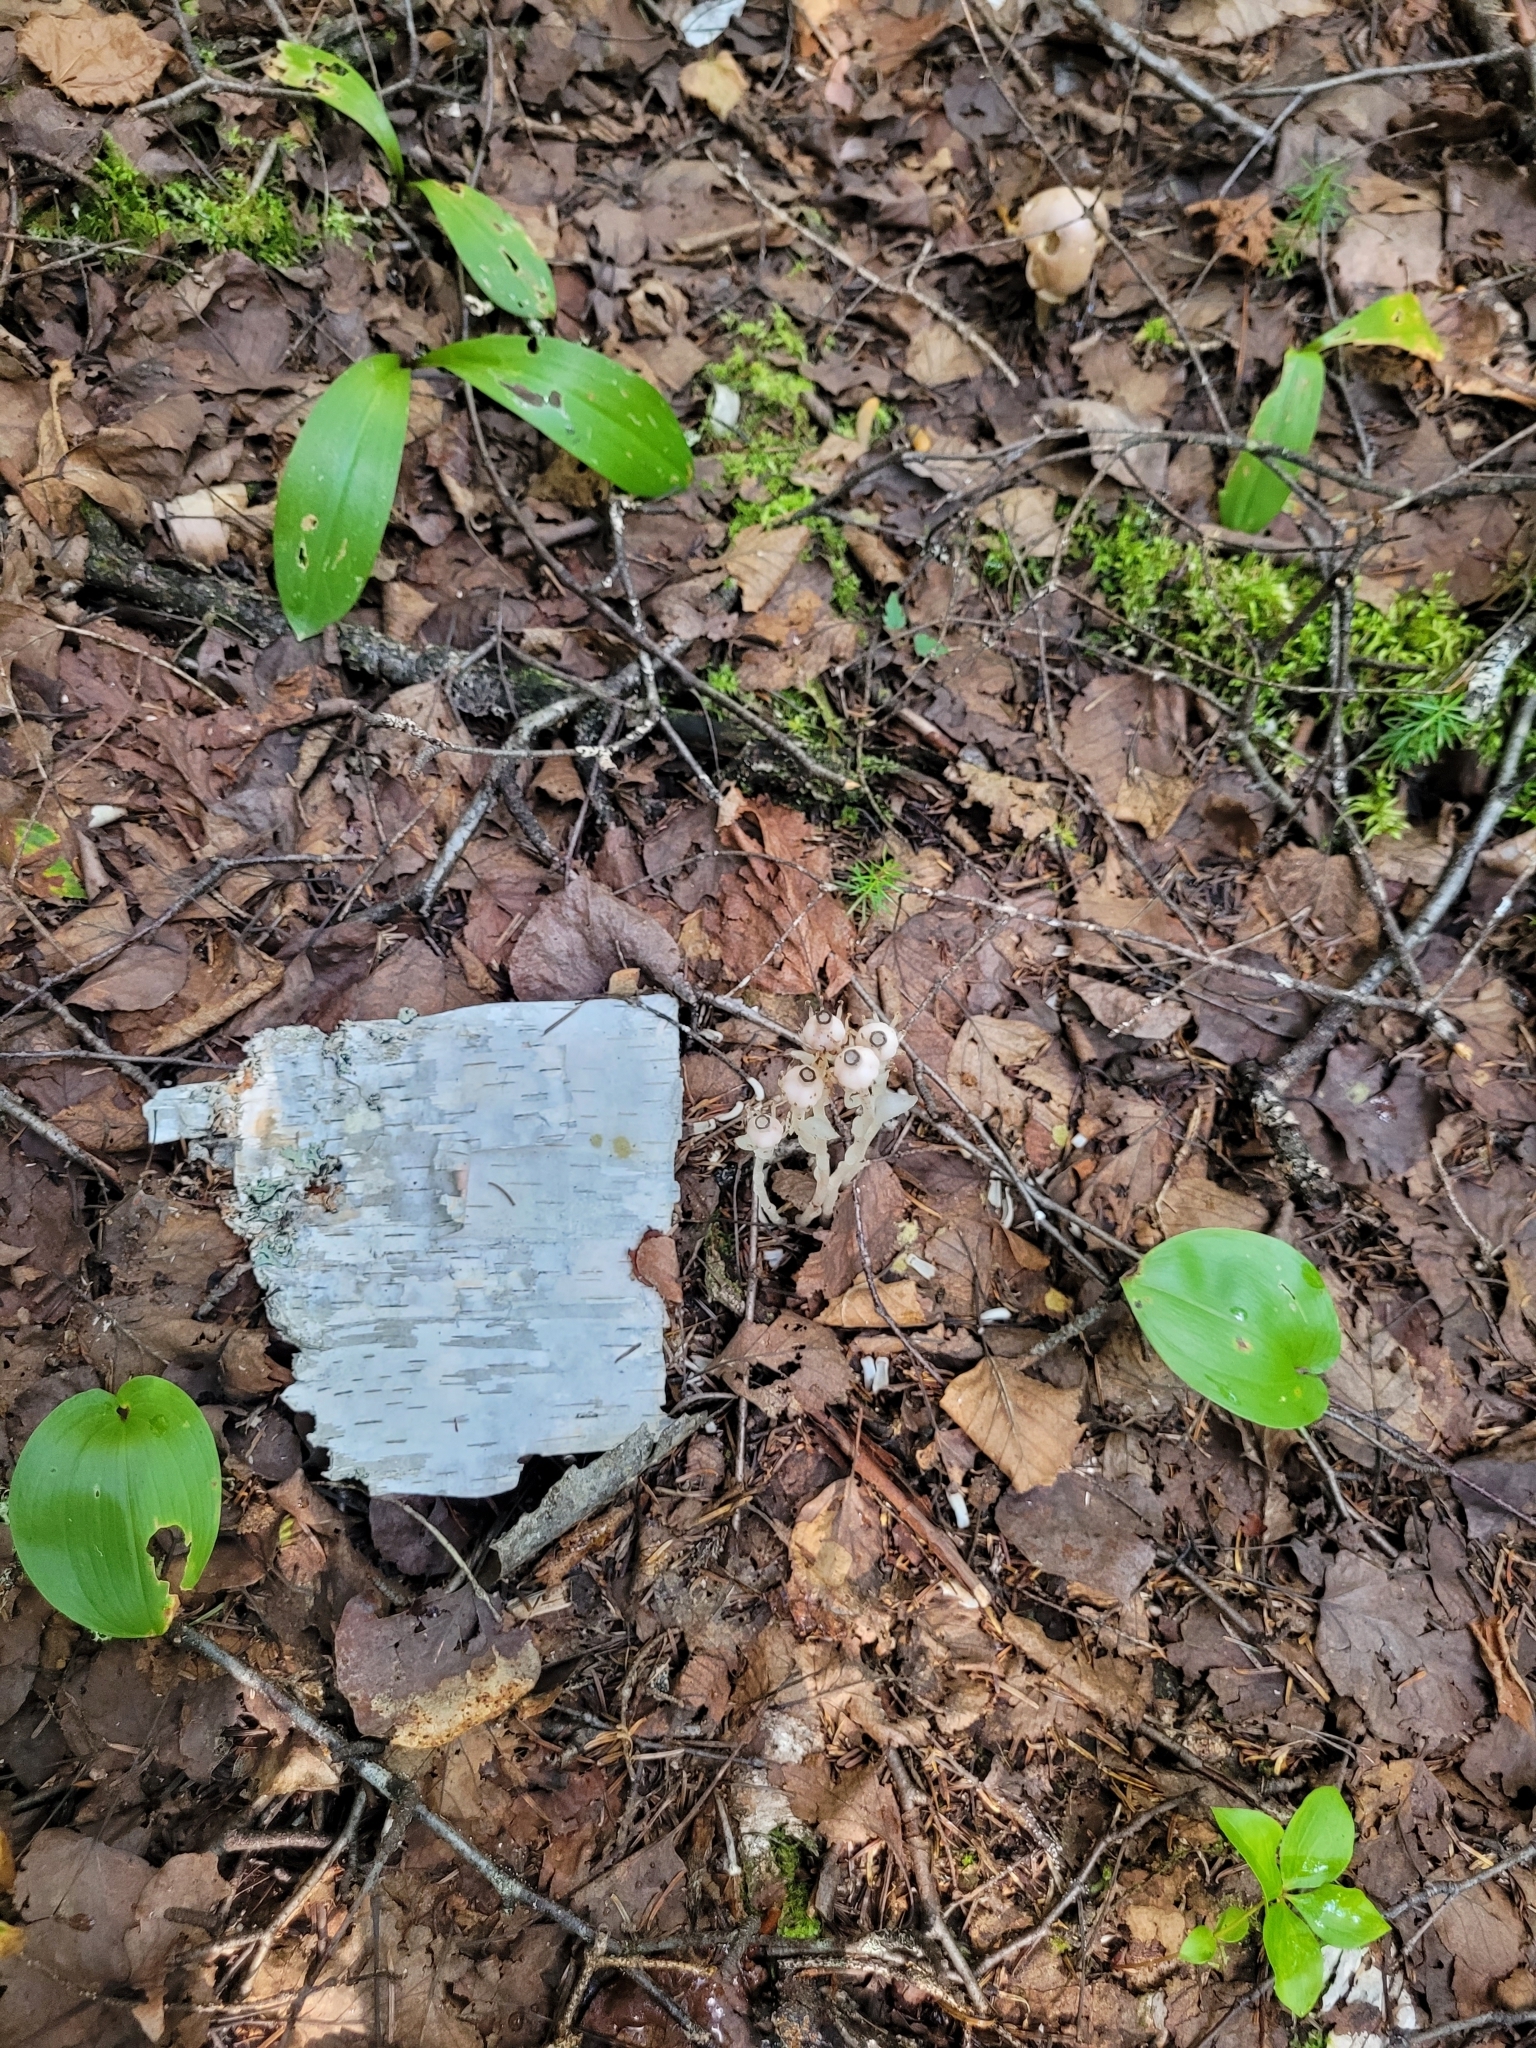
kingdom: Plantae
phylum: Tracheophyta
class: Magnoliopsida
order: Ericales
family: Ericaceae
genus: Monotropa
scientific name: Monotropa uniflora
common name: Convulsion root
